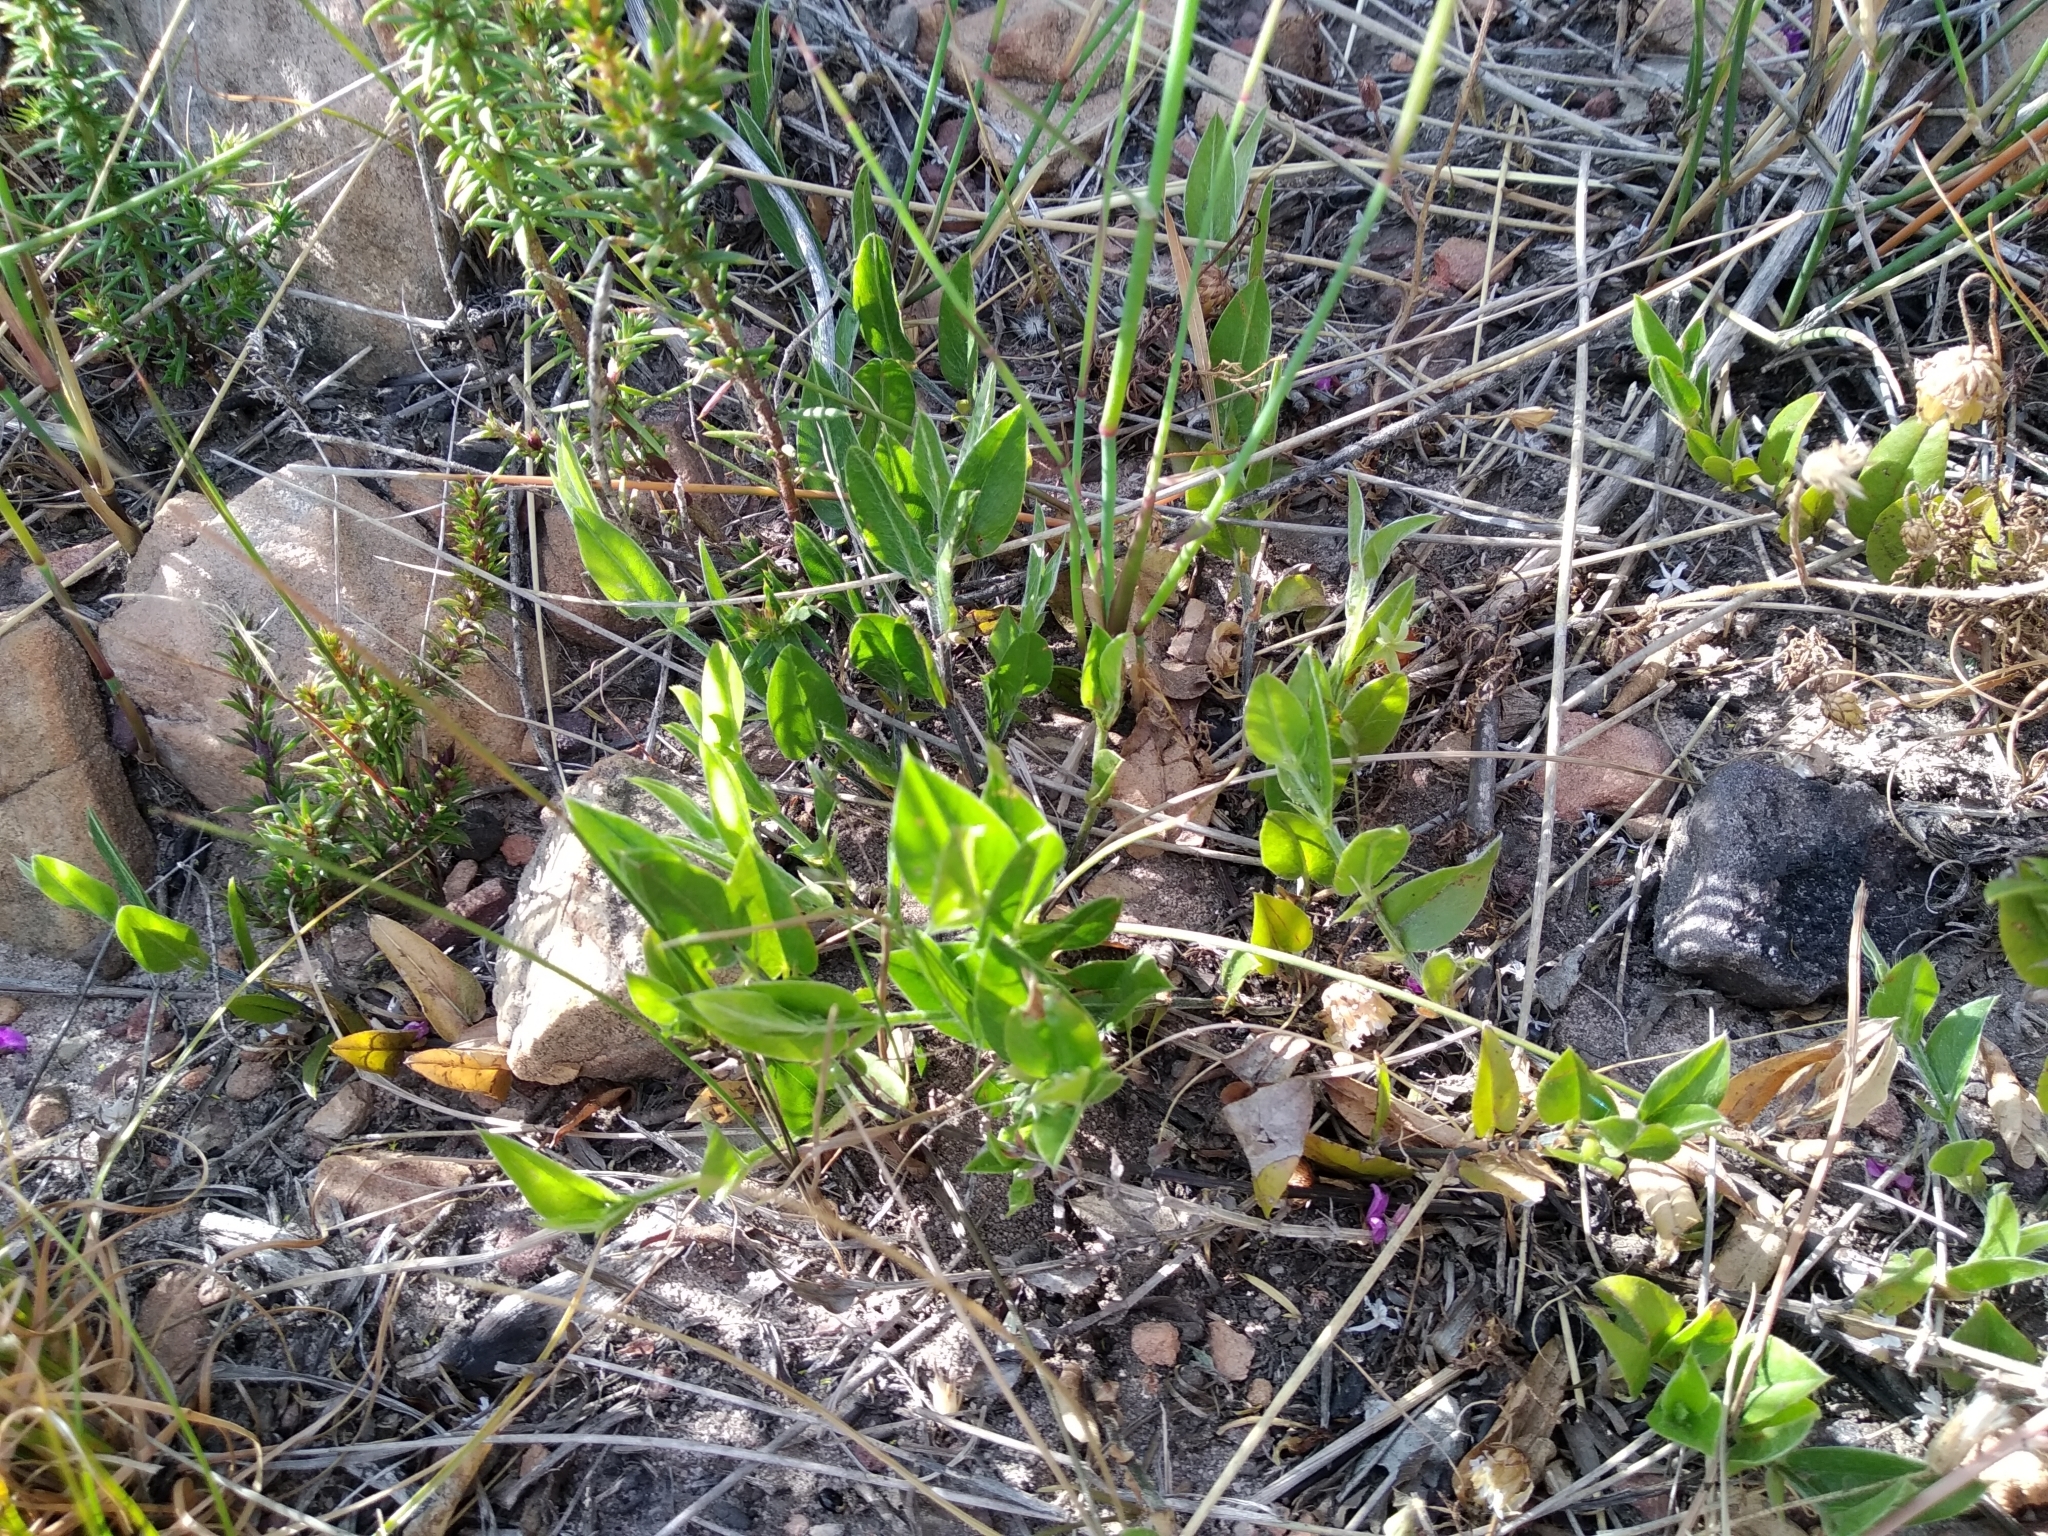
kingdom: Plantae
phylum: Tracheophyta
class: Magnoliopsida
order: Fabales
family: Fabaceae
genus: Psoralea
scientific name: Psoralea monophylla
